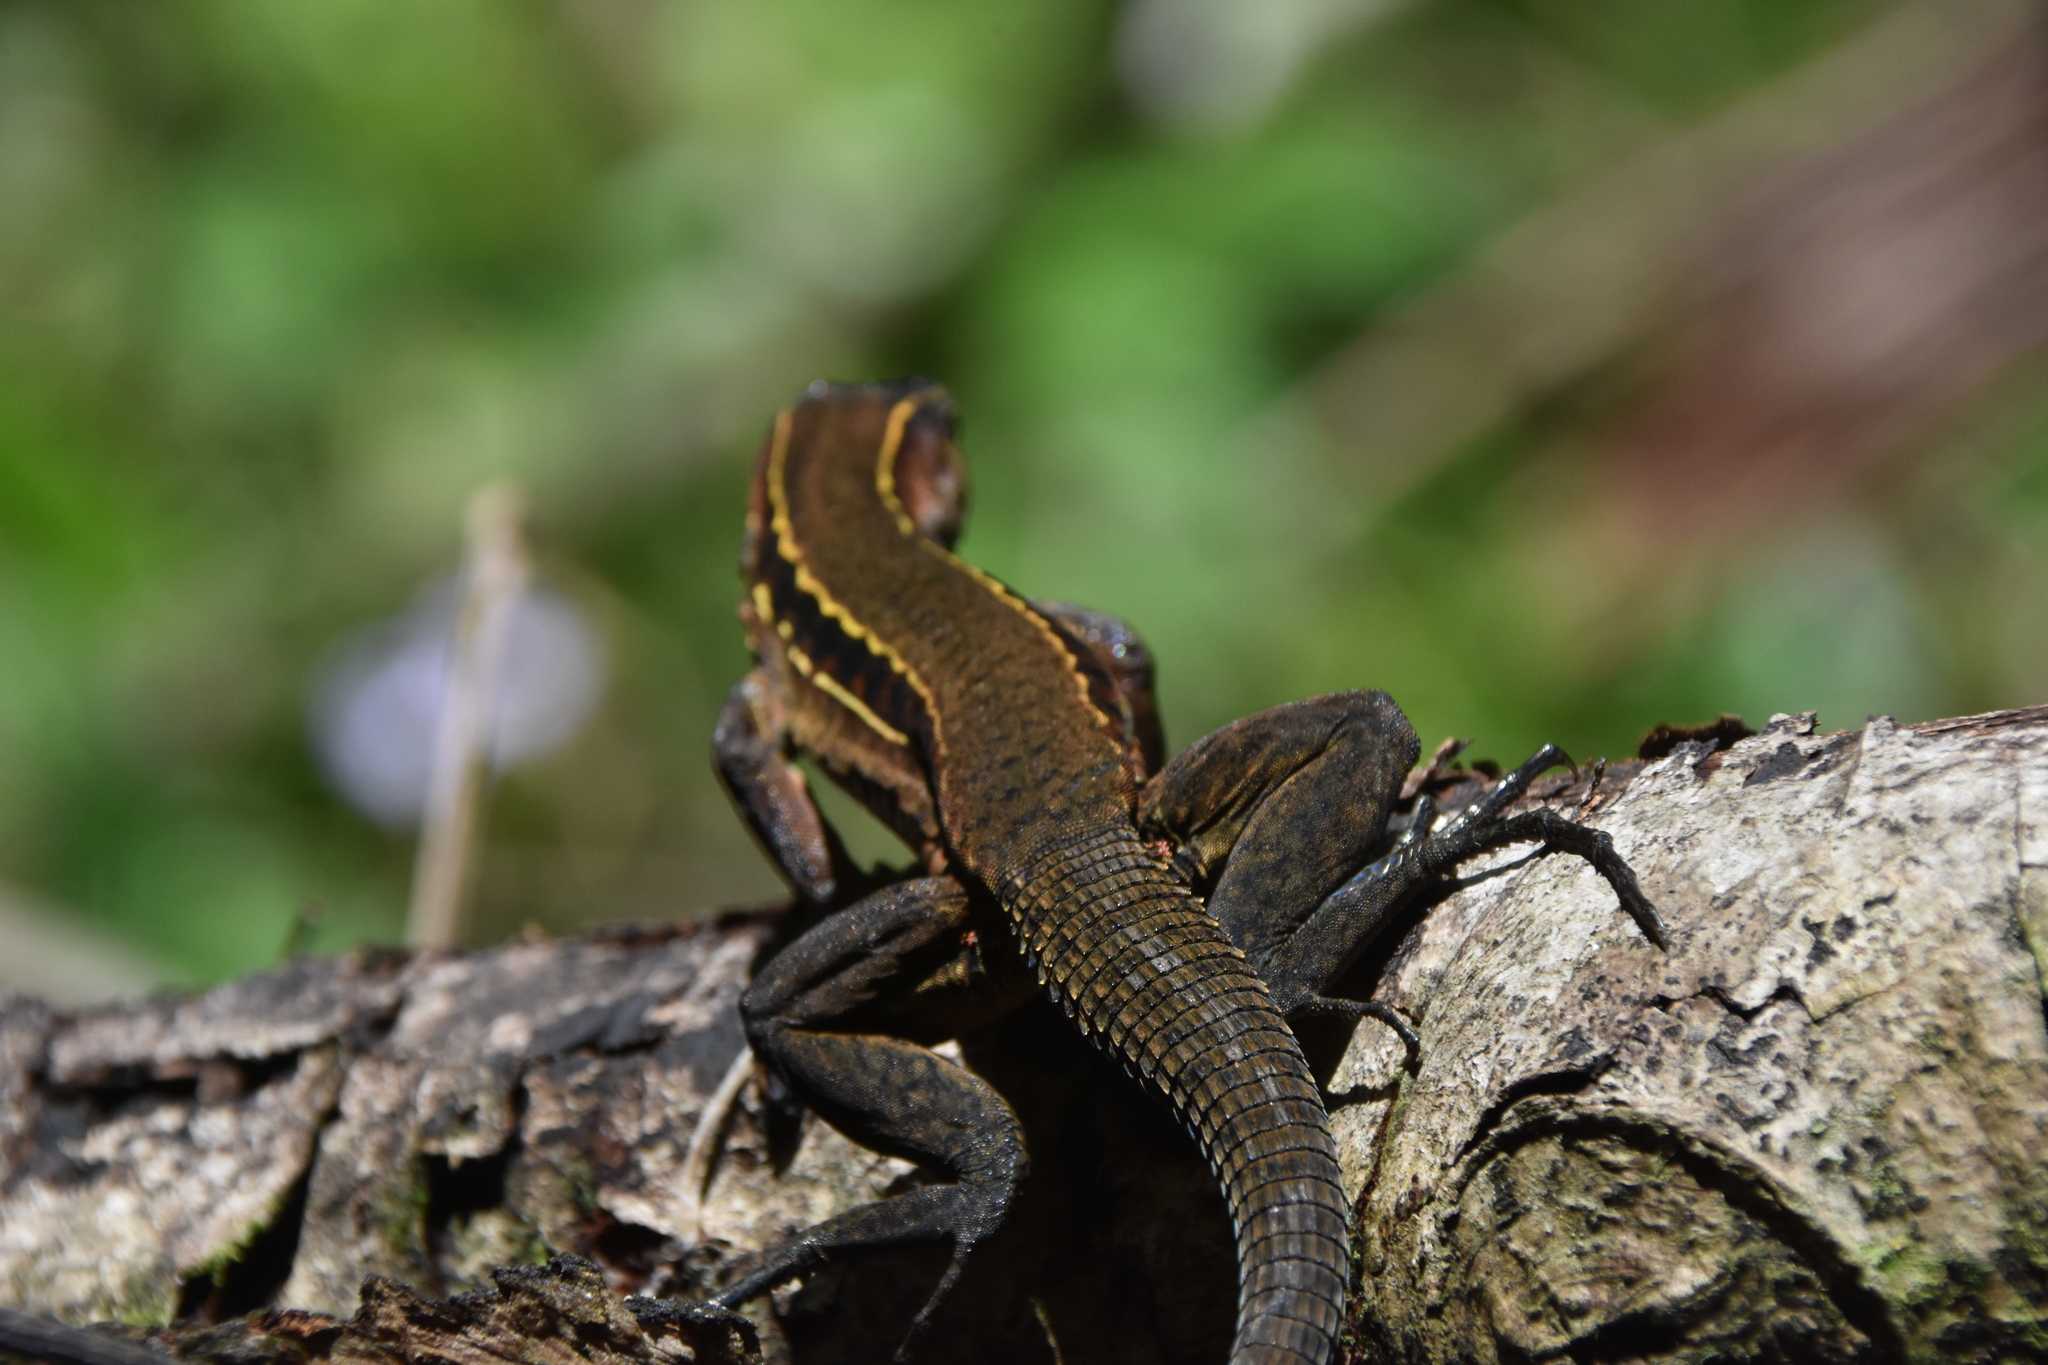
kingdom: Animalia
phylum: Chordata
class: Squamata
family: Teiidae
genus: Holcosus
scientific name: Holcosus leptophrys
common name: Delicate ameiva
